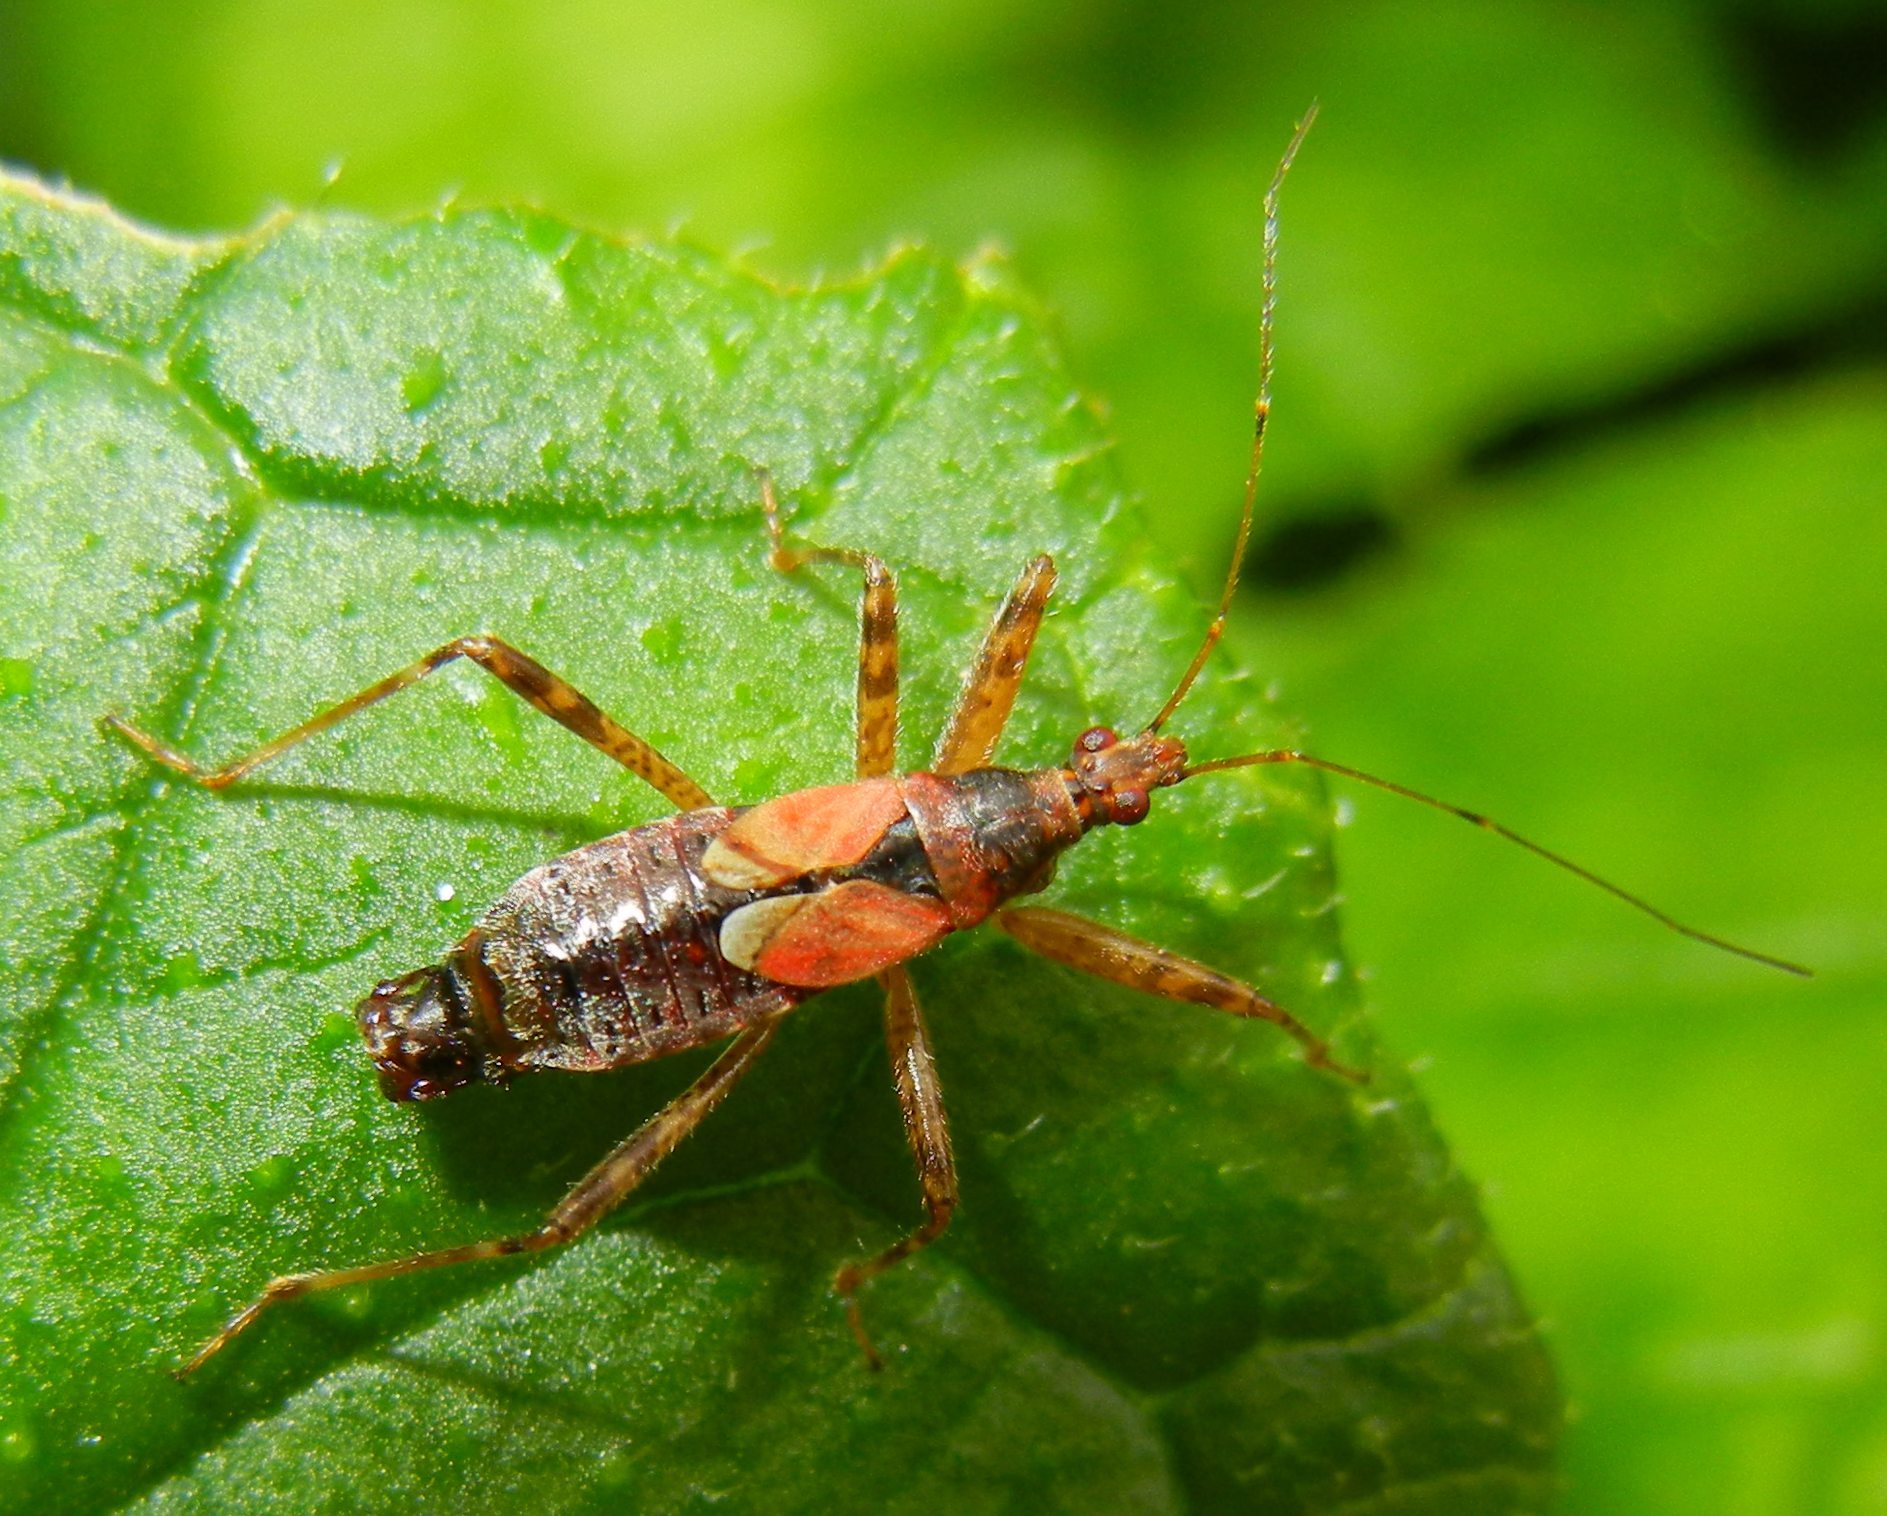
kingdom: Animalia
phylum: Arthropoda
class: Insecta
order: Hemiptera
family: Nabidae
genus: Himacerus
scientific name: Himacerus apterus
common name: Tree damsel bug
